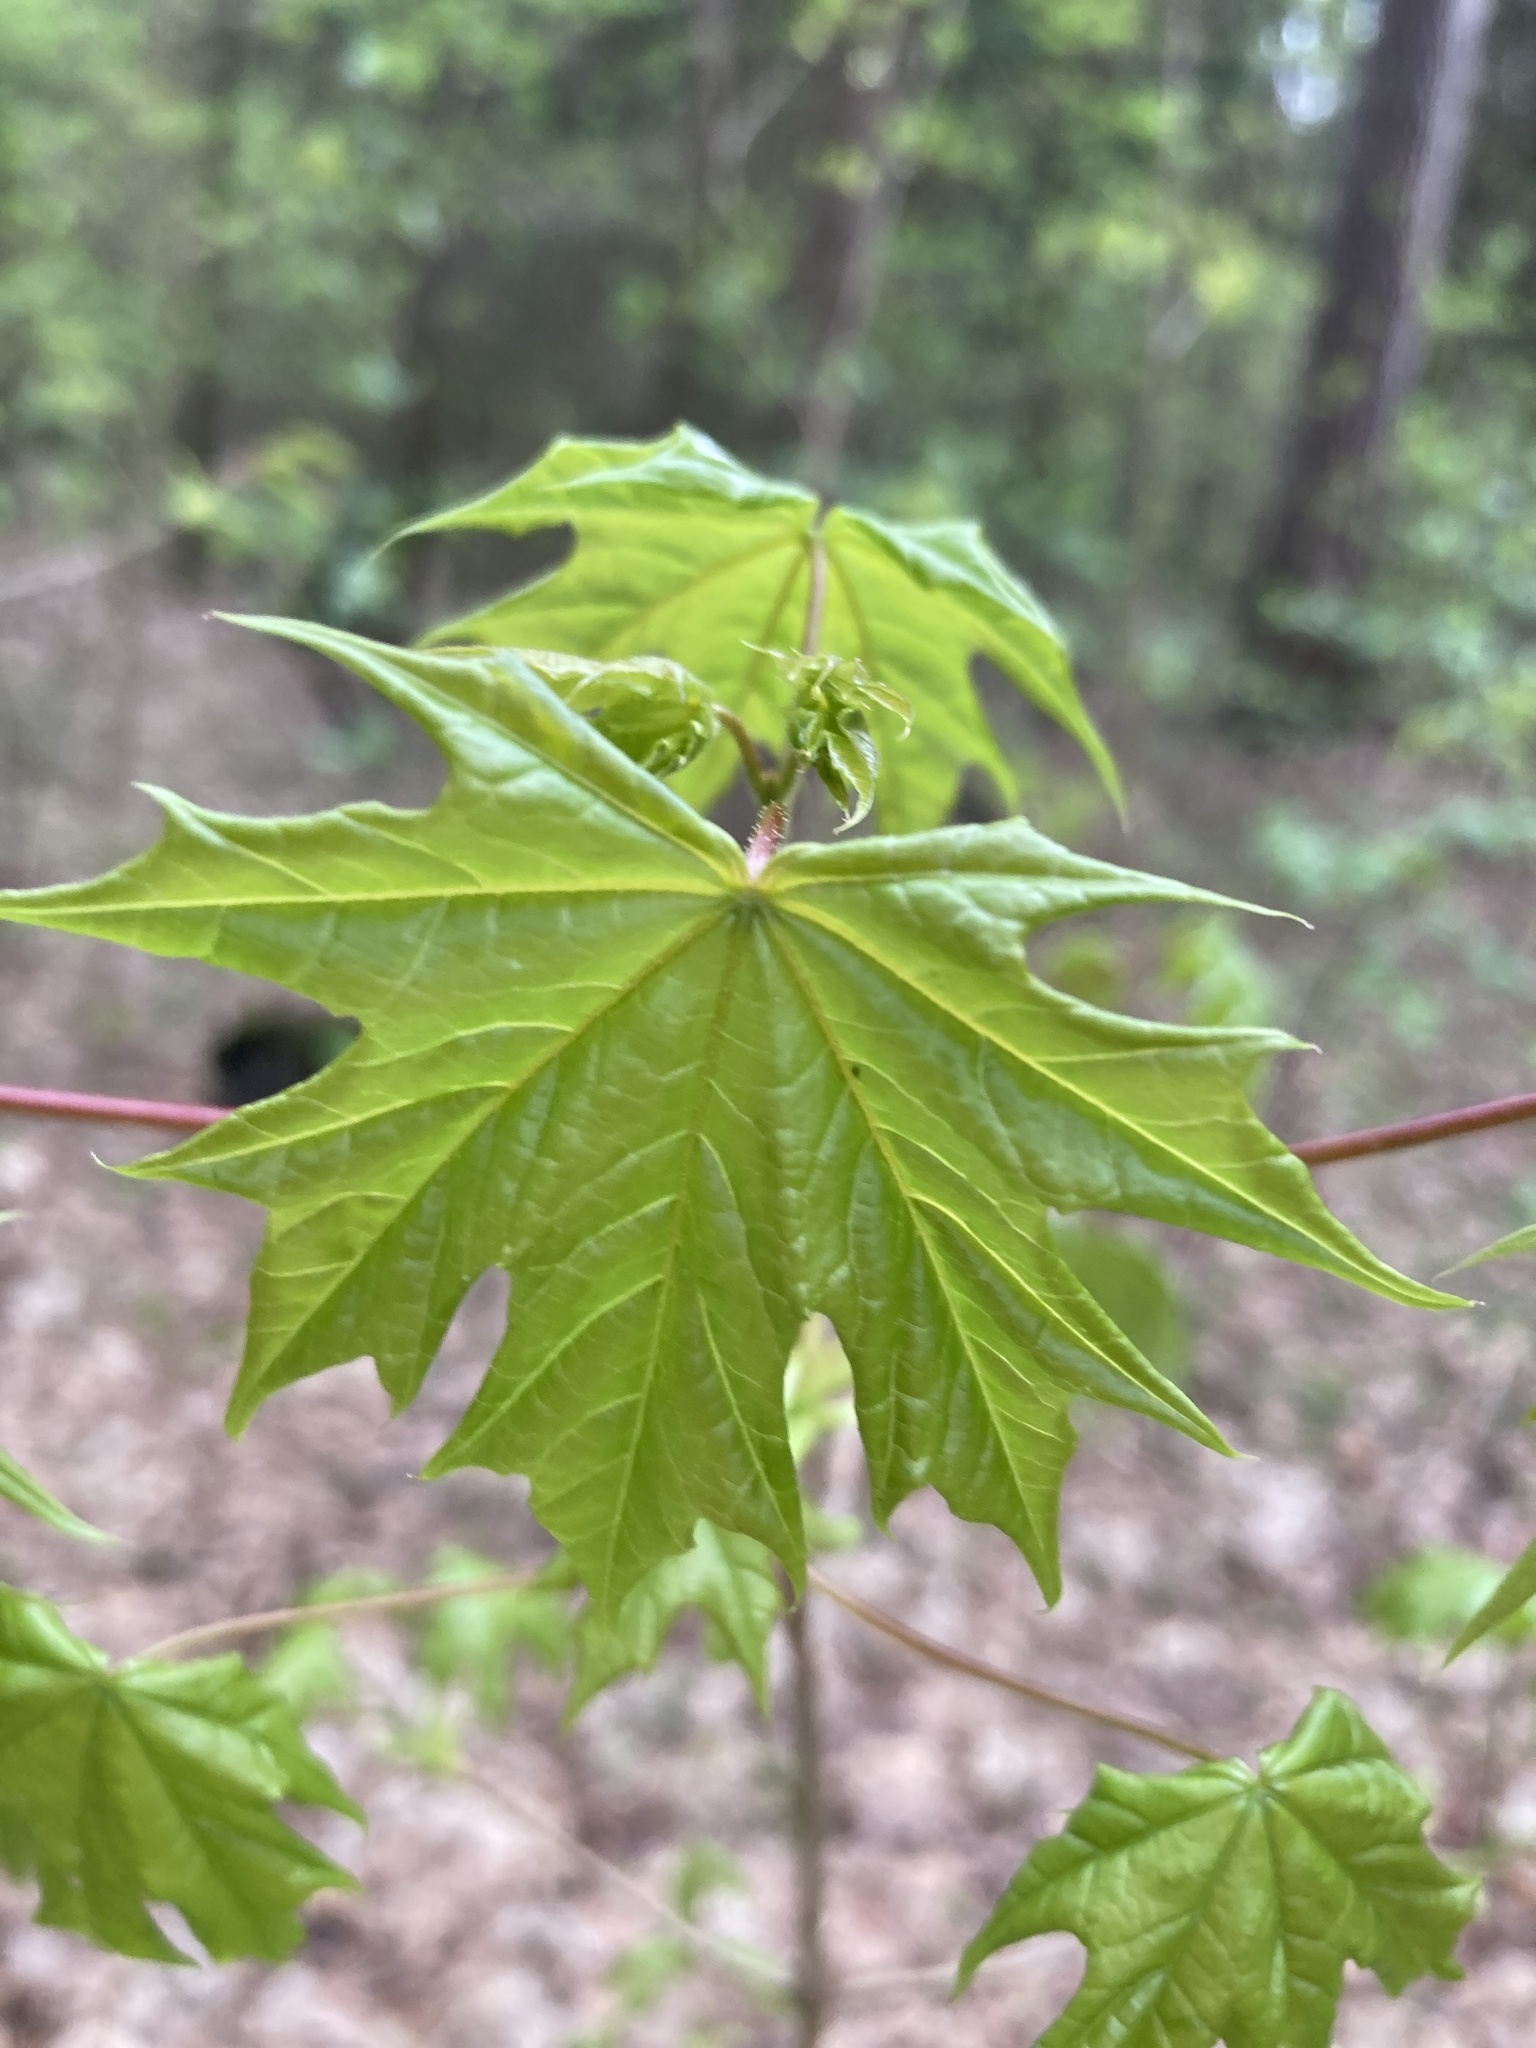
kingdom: Plantae
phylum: Tracheophyta
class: Magnoliopsida
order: Sapindales
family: Sapindaceae
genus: Acer
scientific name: Acer platanoides
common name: Norway maple
